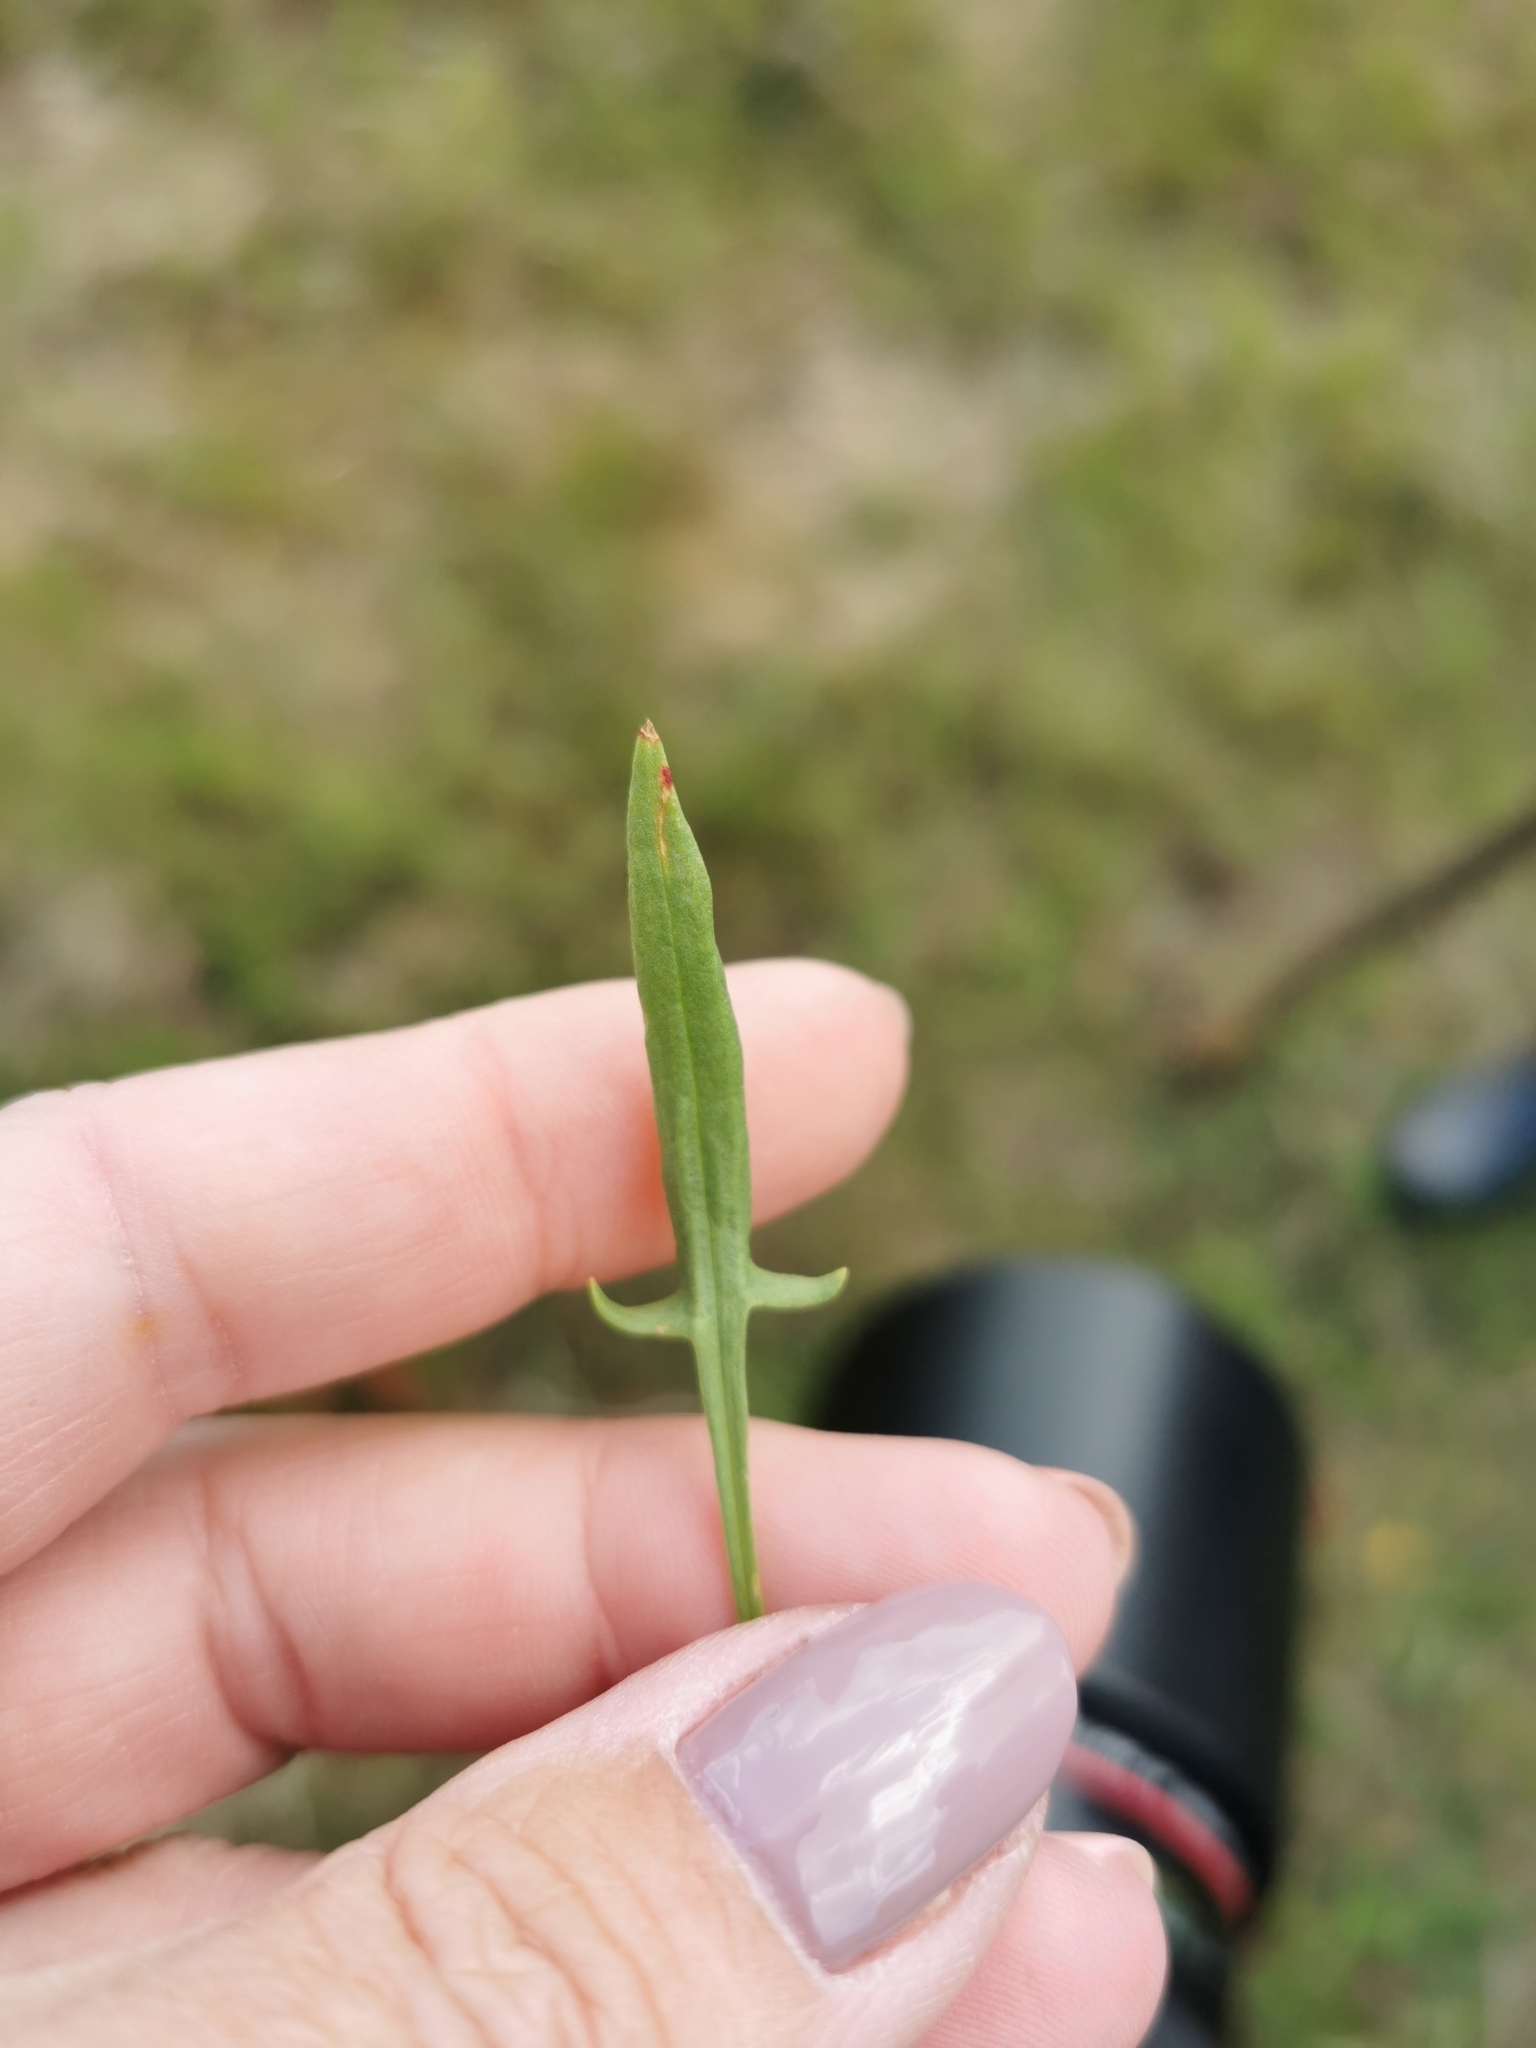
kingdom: Plantae
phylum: Tracheophyta
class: Magnoliopsida
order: Caryophyllales
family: Polygonaceae
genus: Rumex
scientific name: Rumex acetosella
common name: Common sheep sorrel
